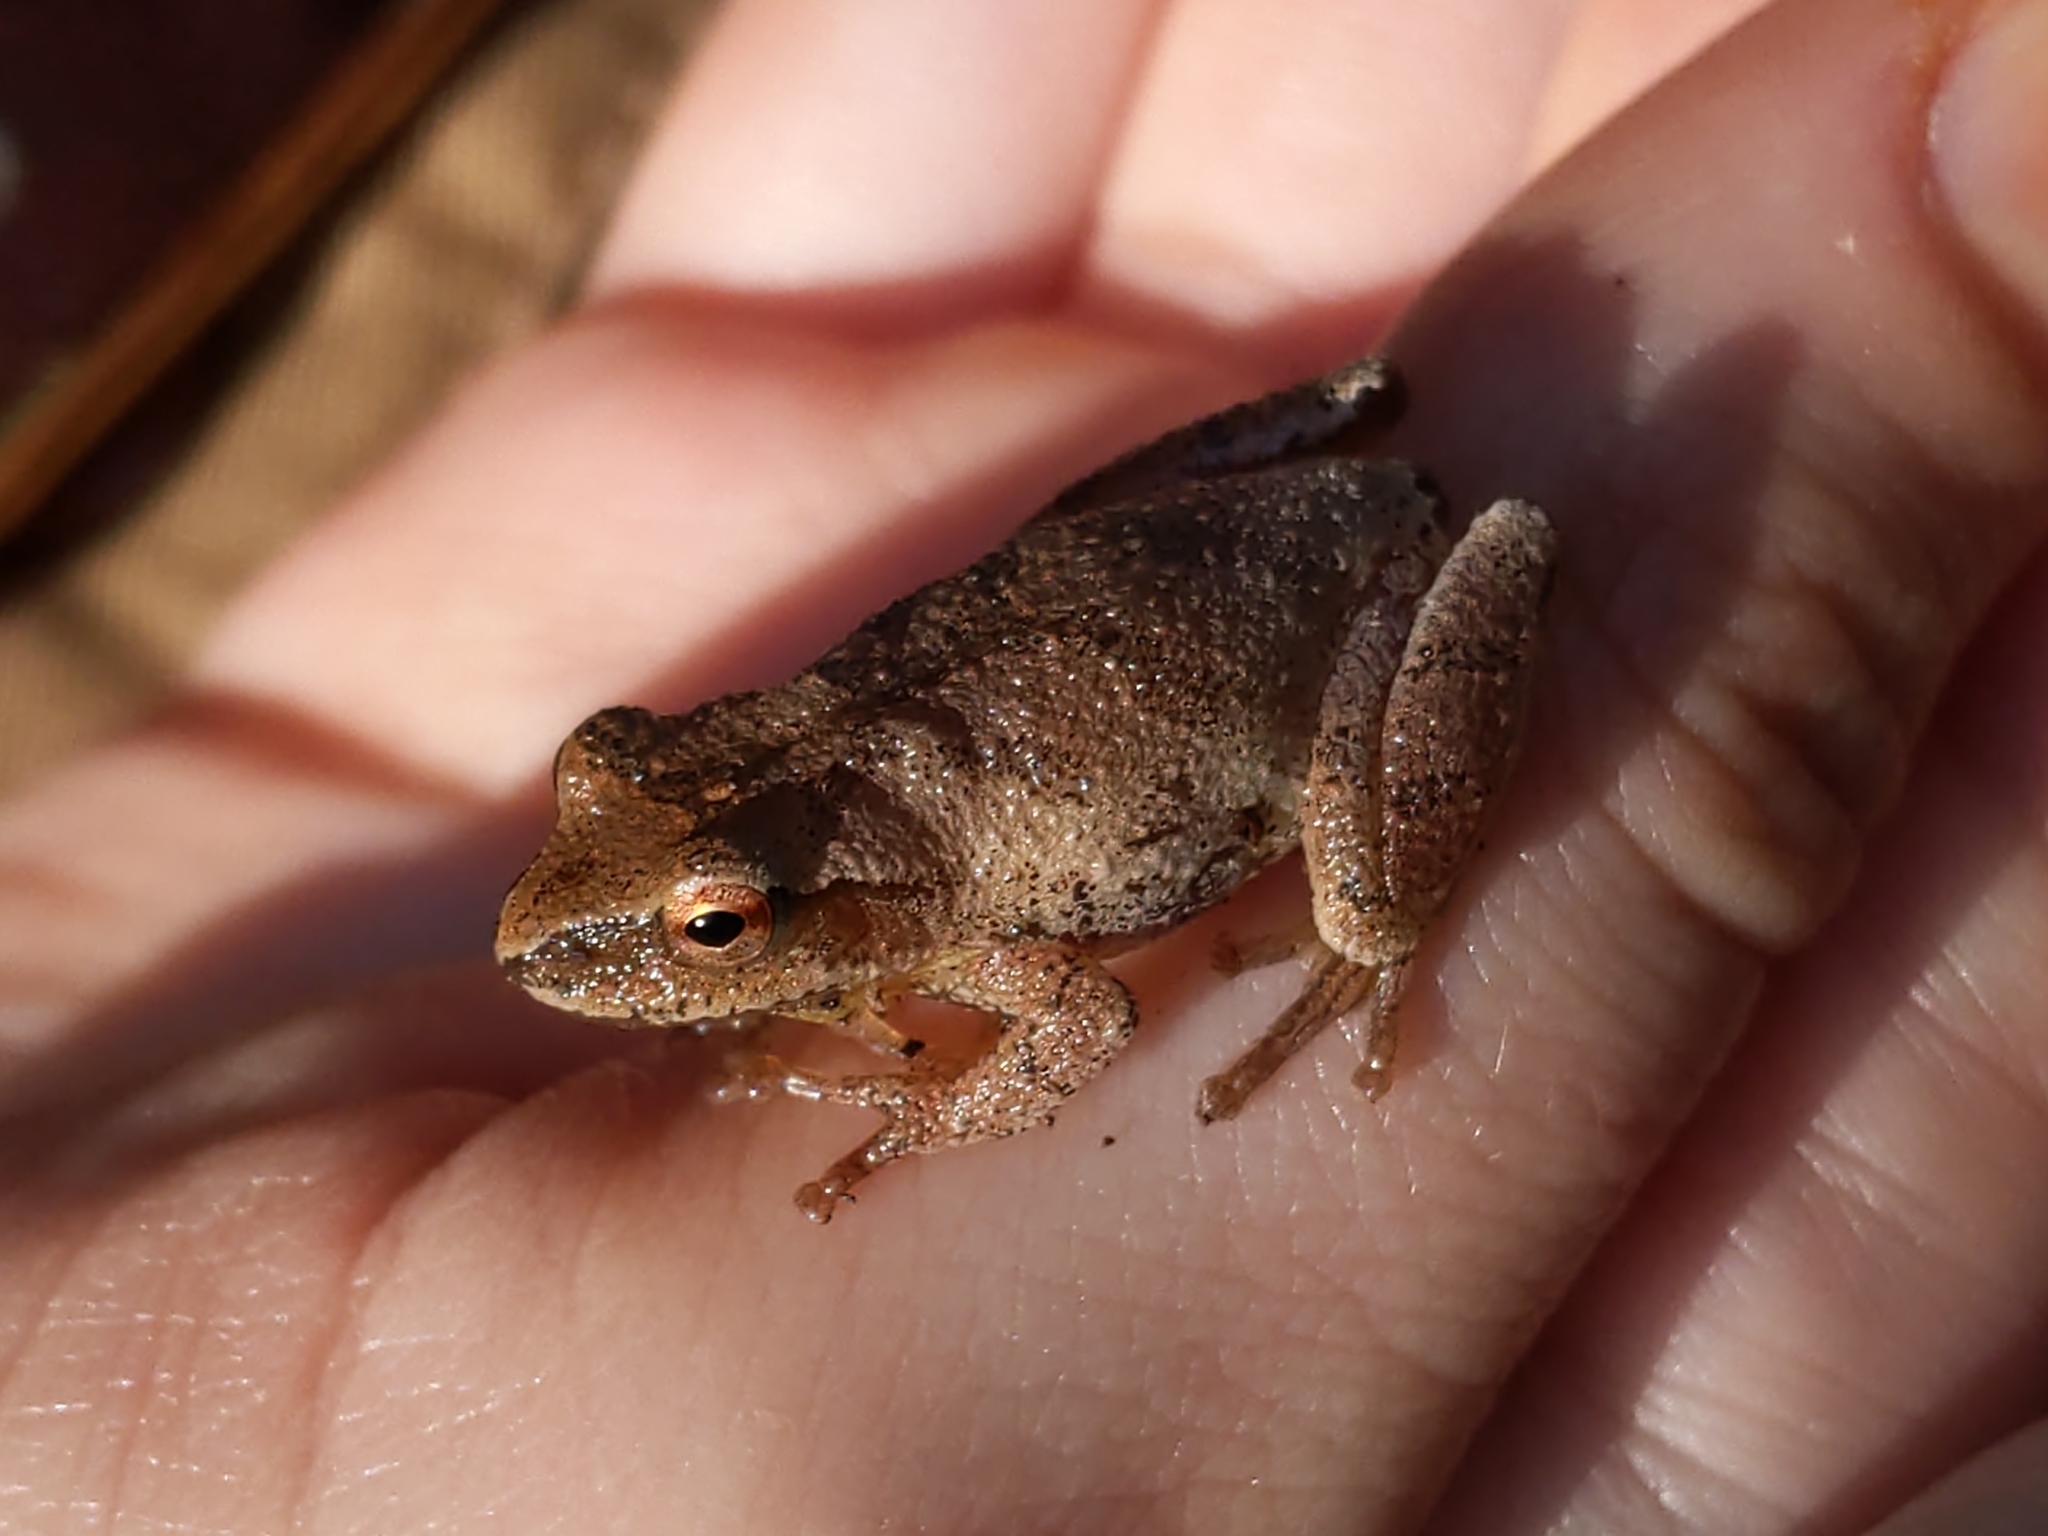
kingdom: Animalia
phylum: Chordata
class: Amphibia
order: Anura
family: Hylidae
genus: Pseudacris
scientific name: Pseudacris crucifer
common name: Spring peeper
